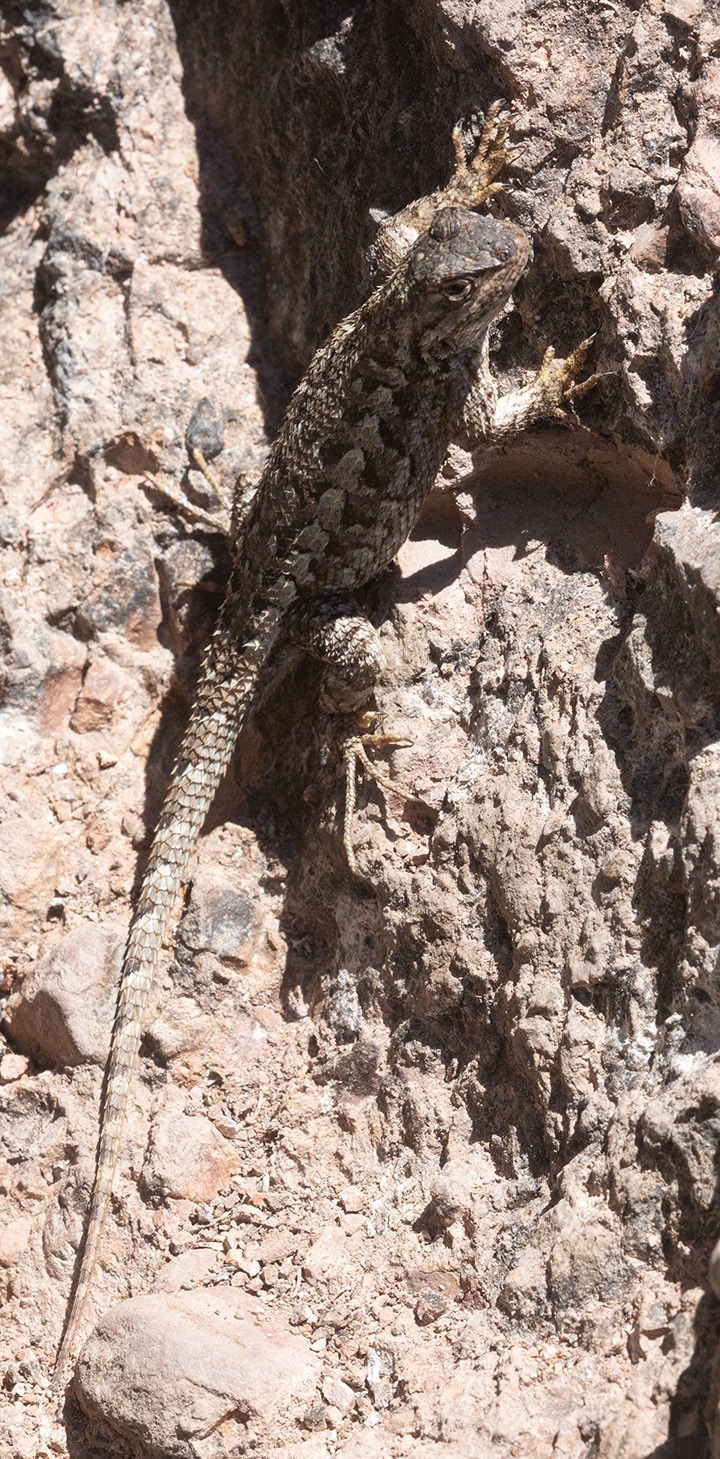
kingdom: Animalia
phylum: Chordata
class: Squamata
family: Phrynosomatidae
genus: Sceloporus
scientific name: Sceloporus occidentalis
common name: Western fence lizard
